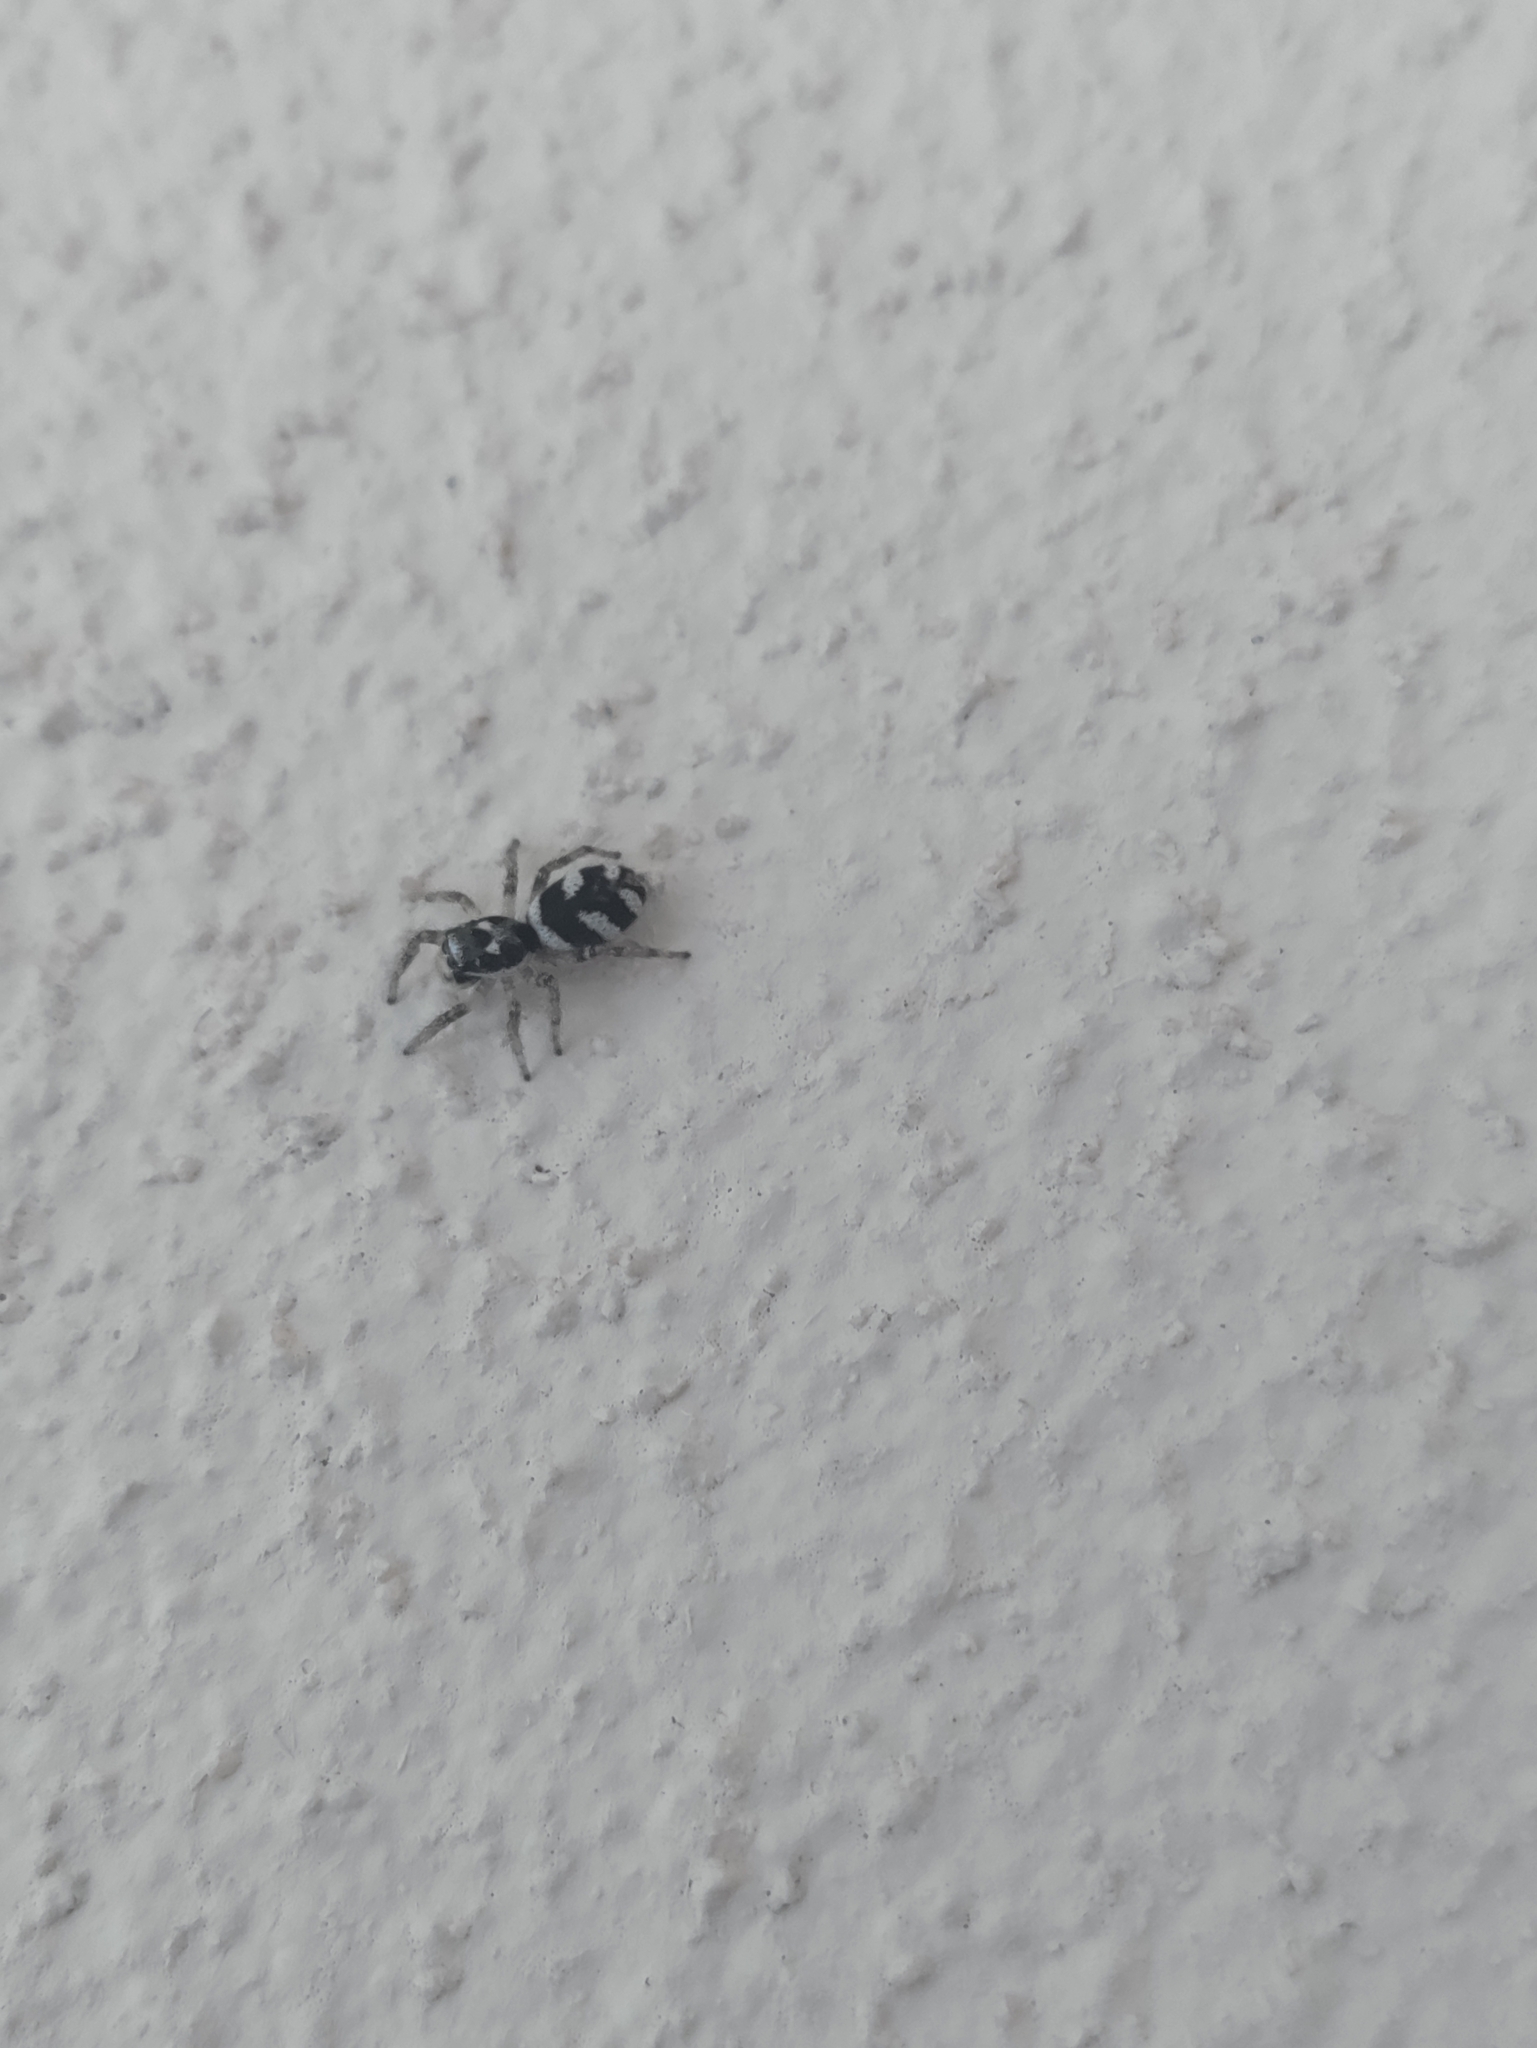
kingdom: Animalia
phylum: Arthropoda
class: Arachnida
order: Araneae
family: Salticidae
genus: Salticus
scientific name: Salticus scenicus
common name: Zebra jumper
